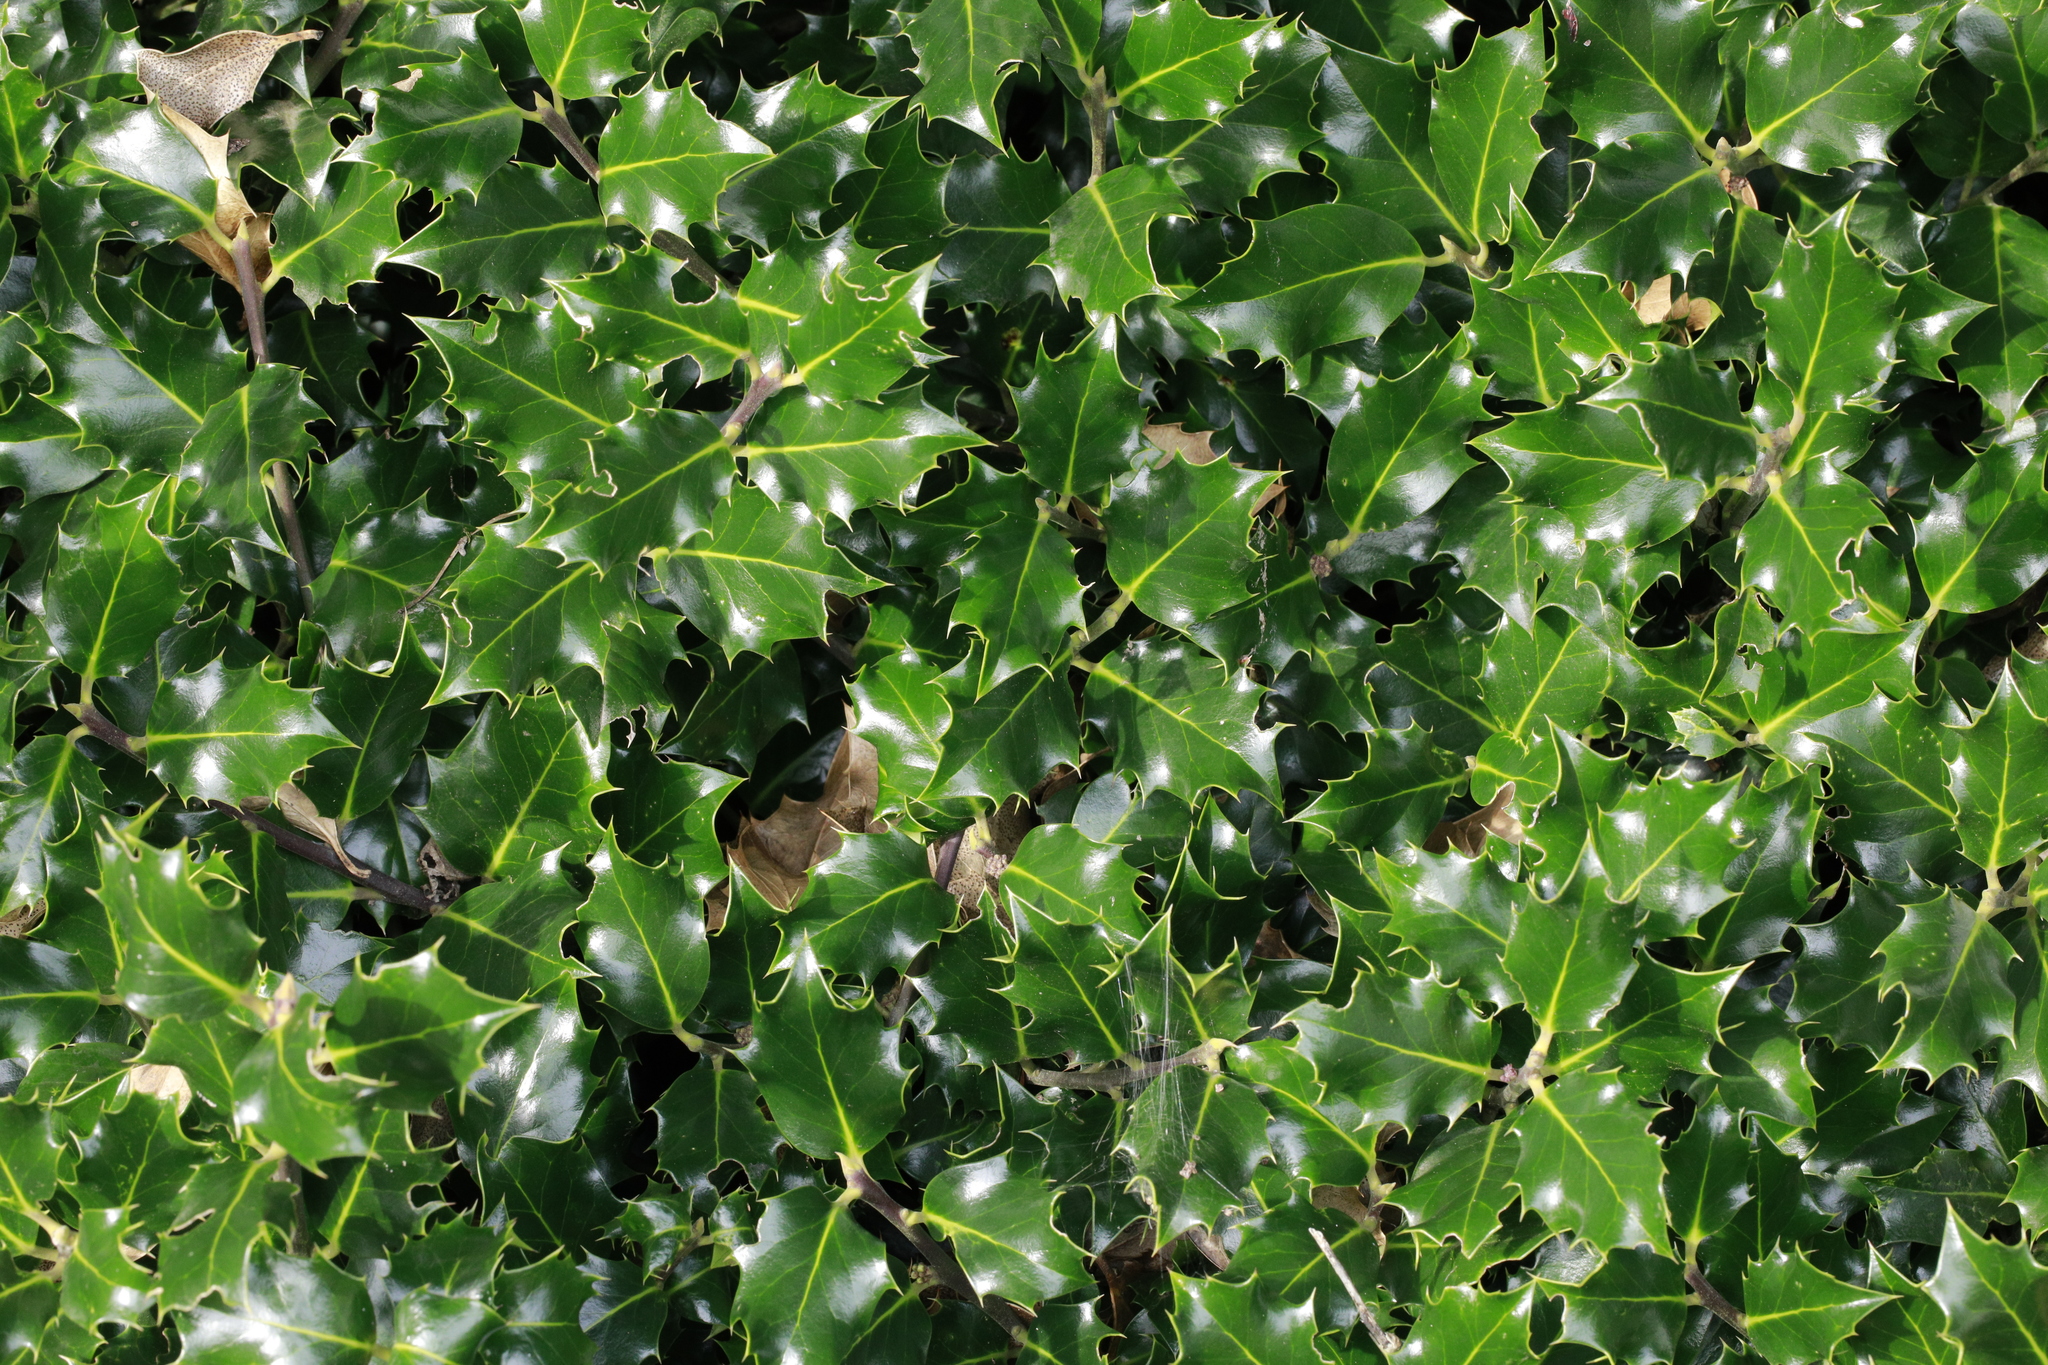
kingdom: Plantae
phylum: Tracheophyta
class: Magnoliopsida
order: Aquifoliales
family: Aquifoliaceae
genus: Ilex
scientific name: Ilex aquifolium
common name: English holly
